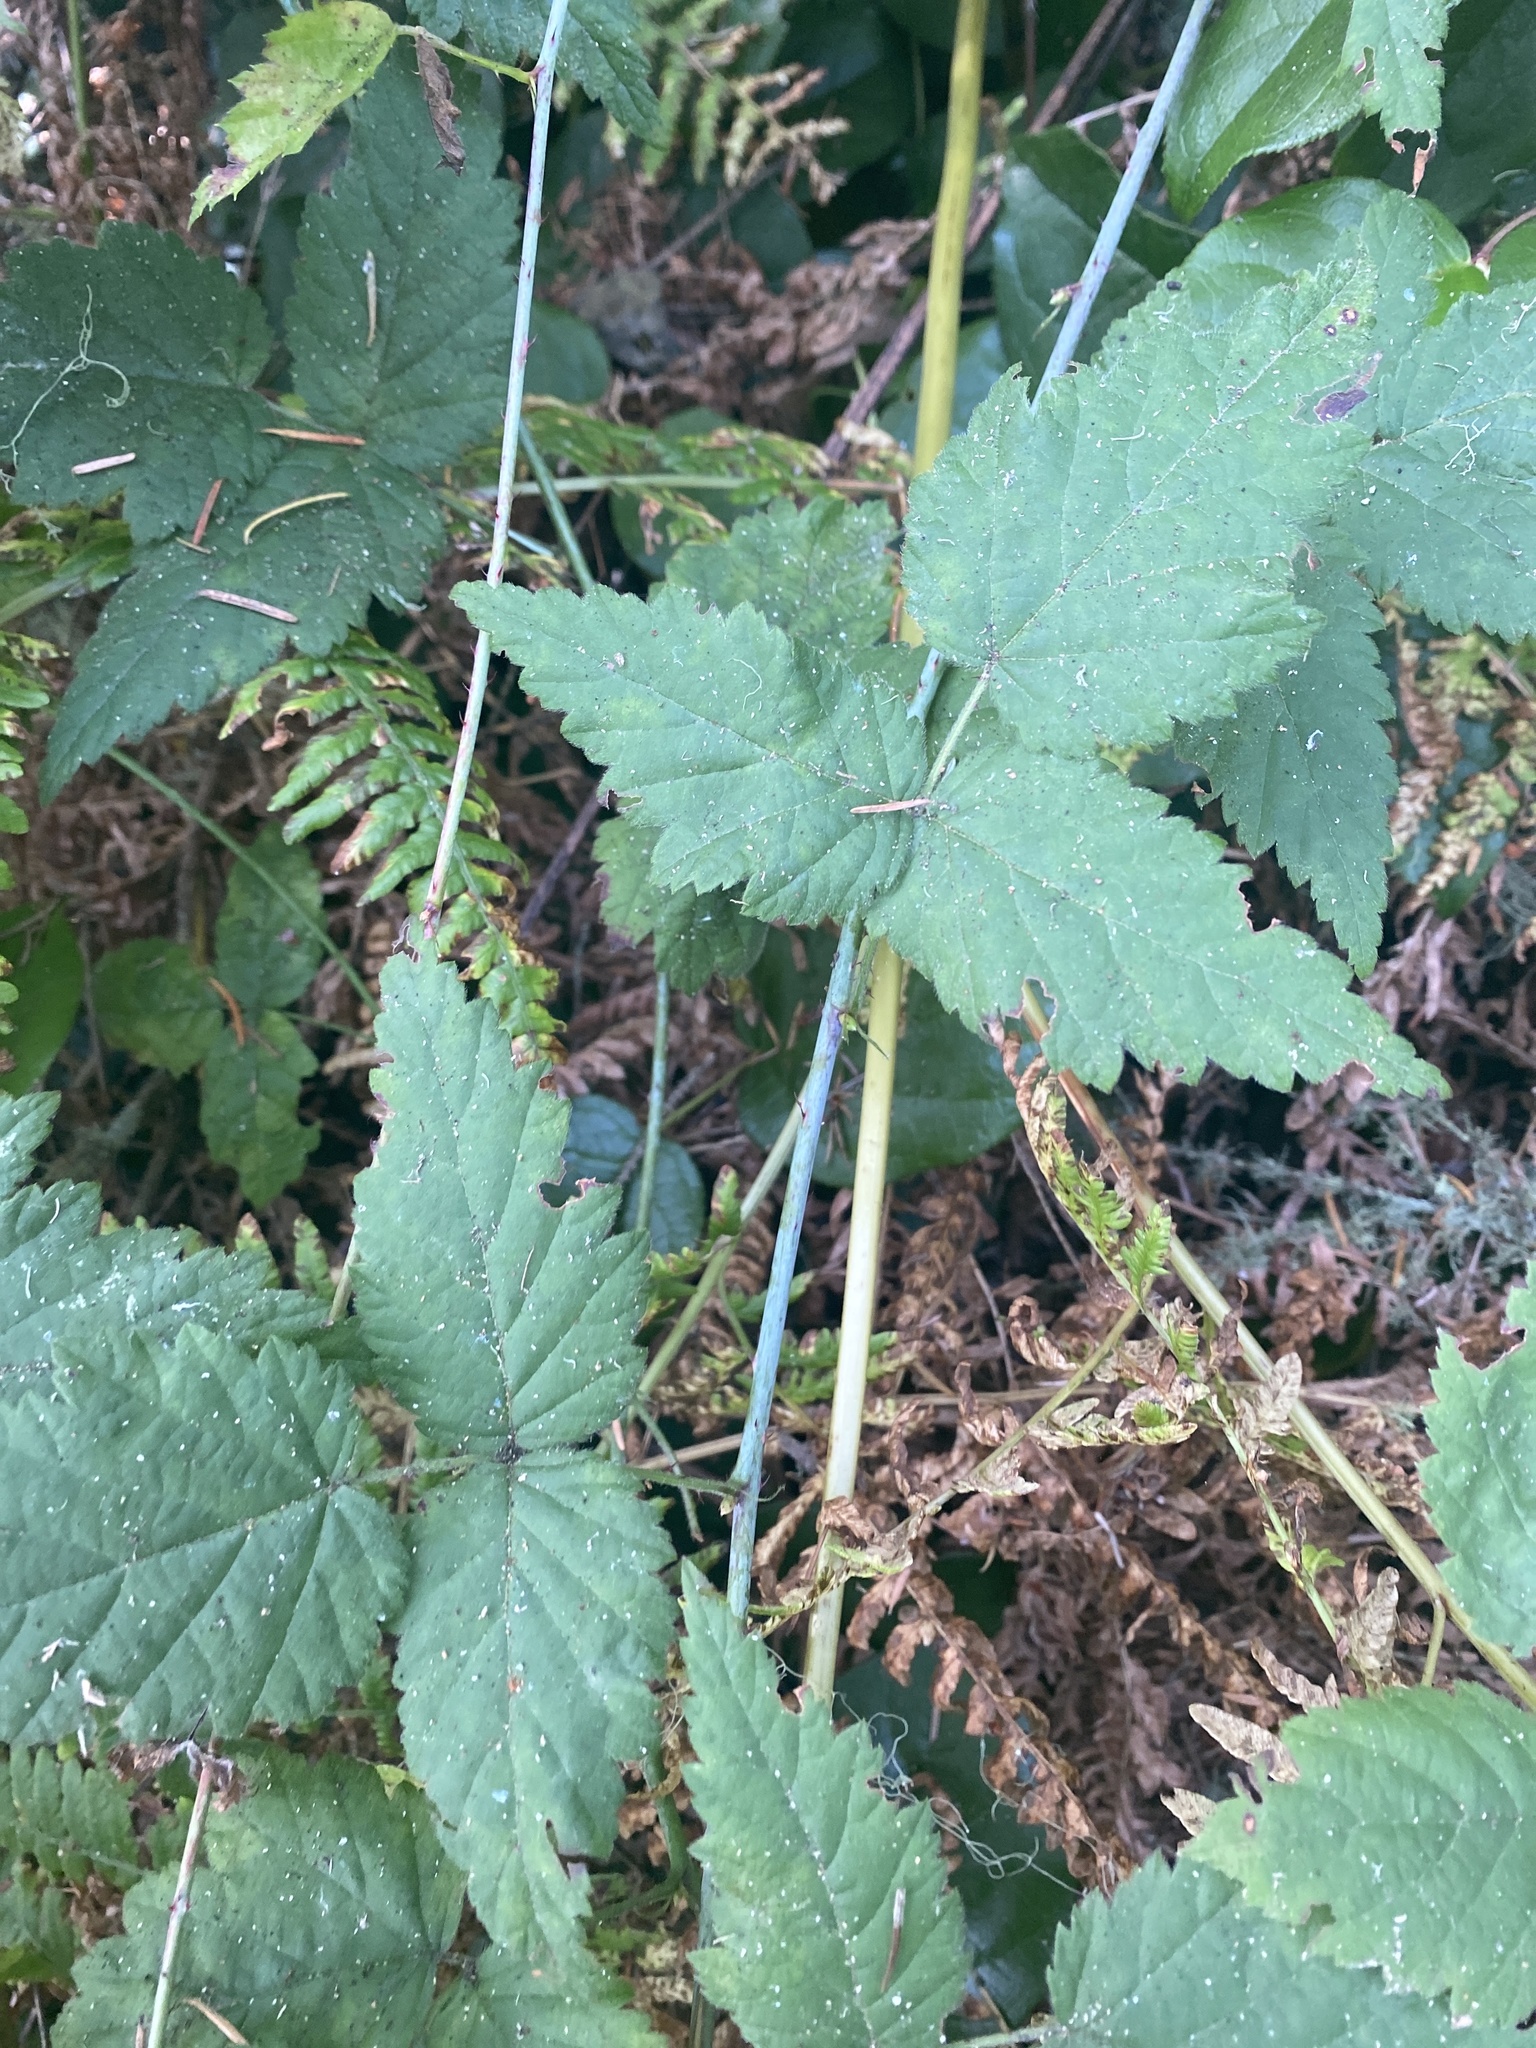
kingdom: Plantae
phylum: Tracheophyta
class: Magnoliopsida
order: Rosales
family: Rosaceae
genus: Rubus
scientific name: Rubus ursinus
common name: Pacific blackberry
